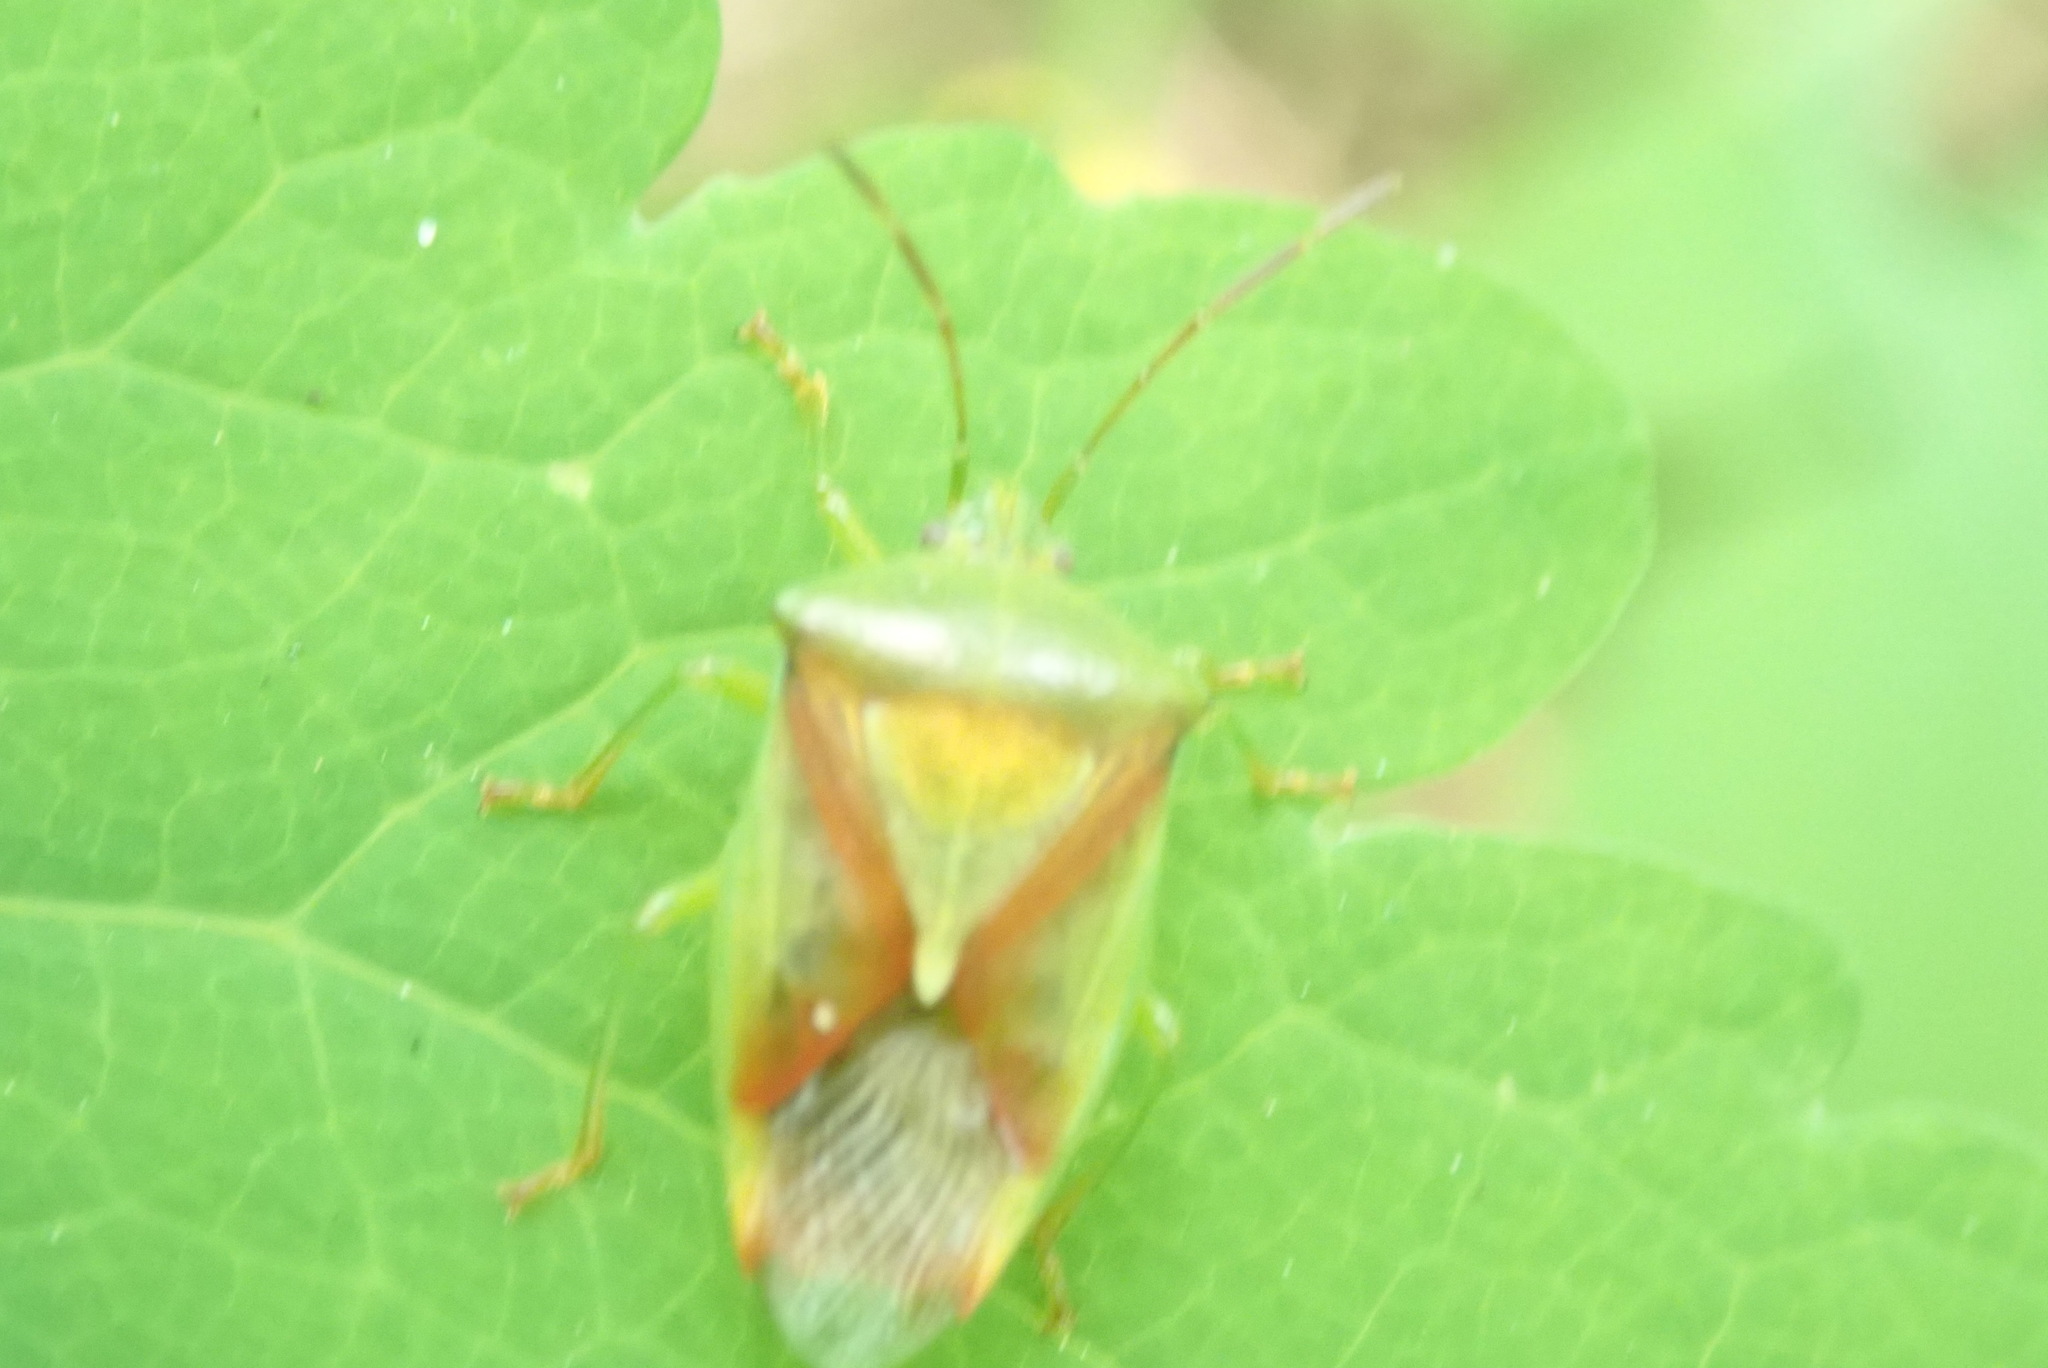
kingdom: Animalia
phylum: Arthropoda
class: Insecta
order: Hemiptera
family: Acanthosomatidae
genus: Elasmostethus
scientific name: Elasmostethus
